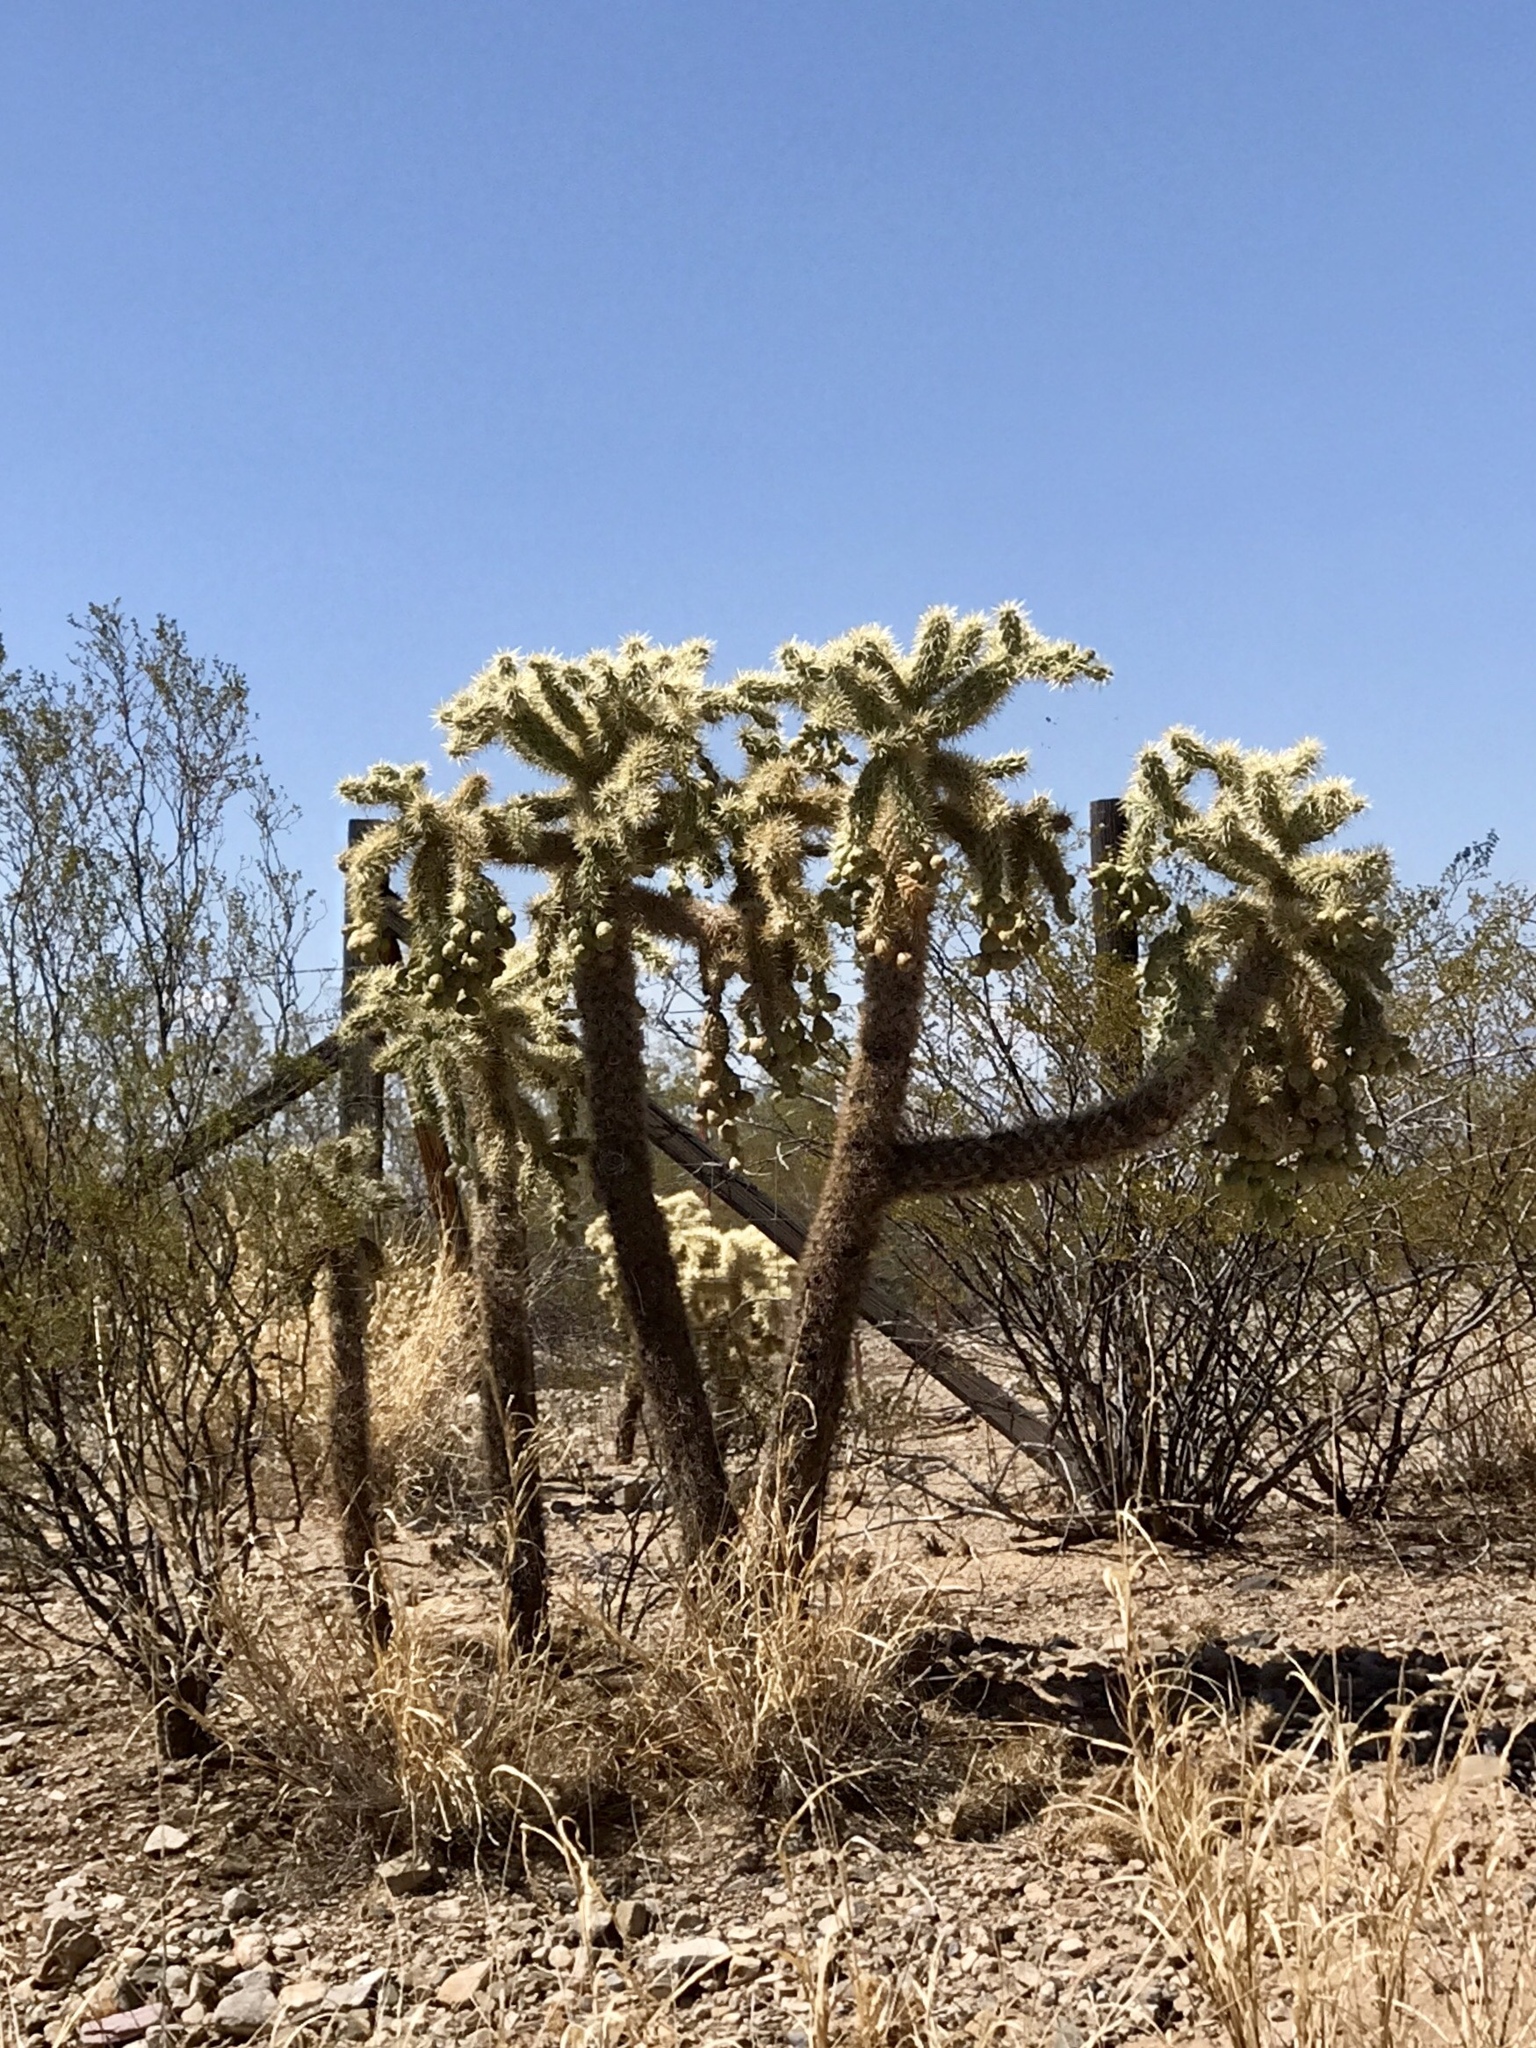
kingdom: Plantae
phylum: Tracheophyta
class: Magnoliopsida
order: Caryophyllales
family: Cactaceae
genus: Cylindropuntia
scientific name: Cylindropuntia fulgida
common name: Jumping cholla
